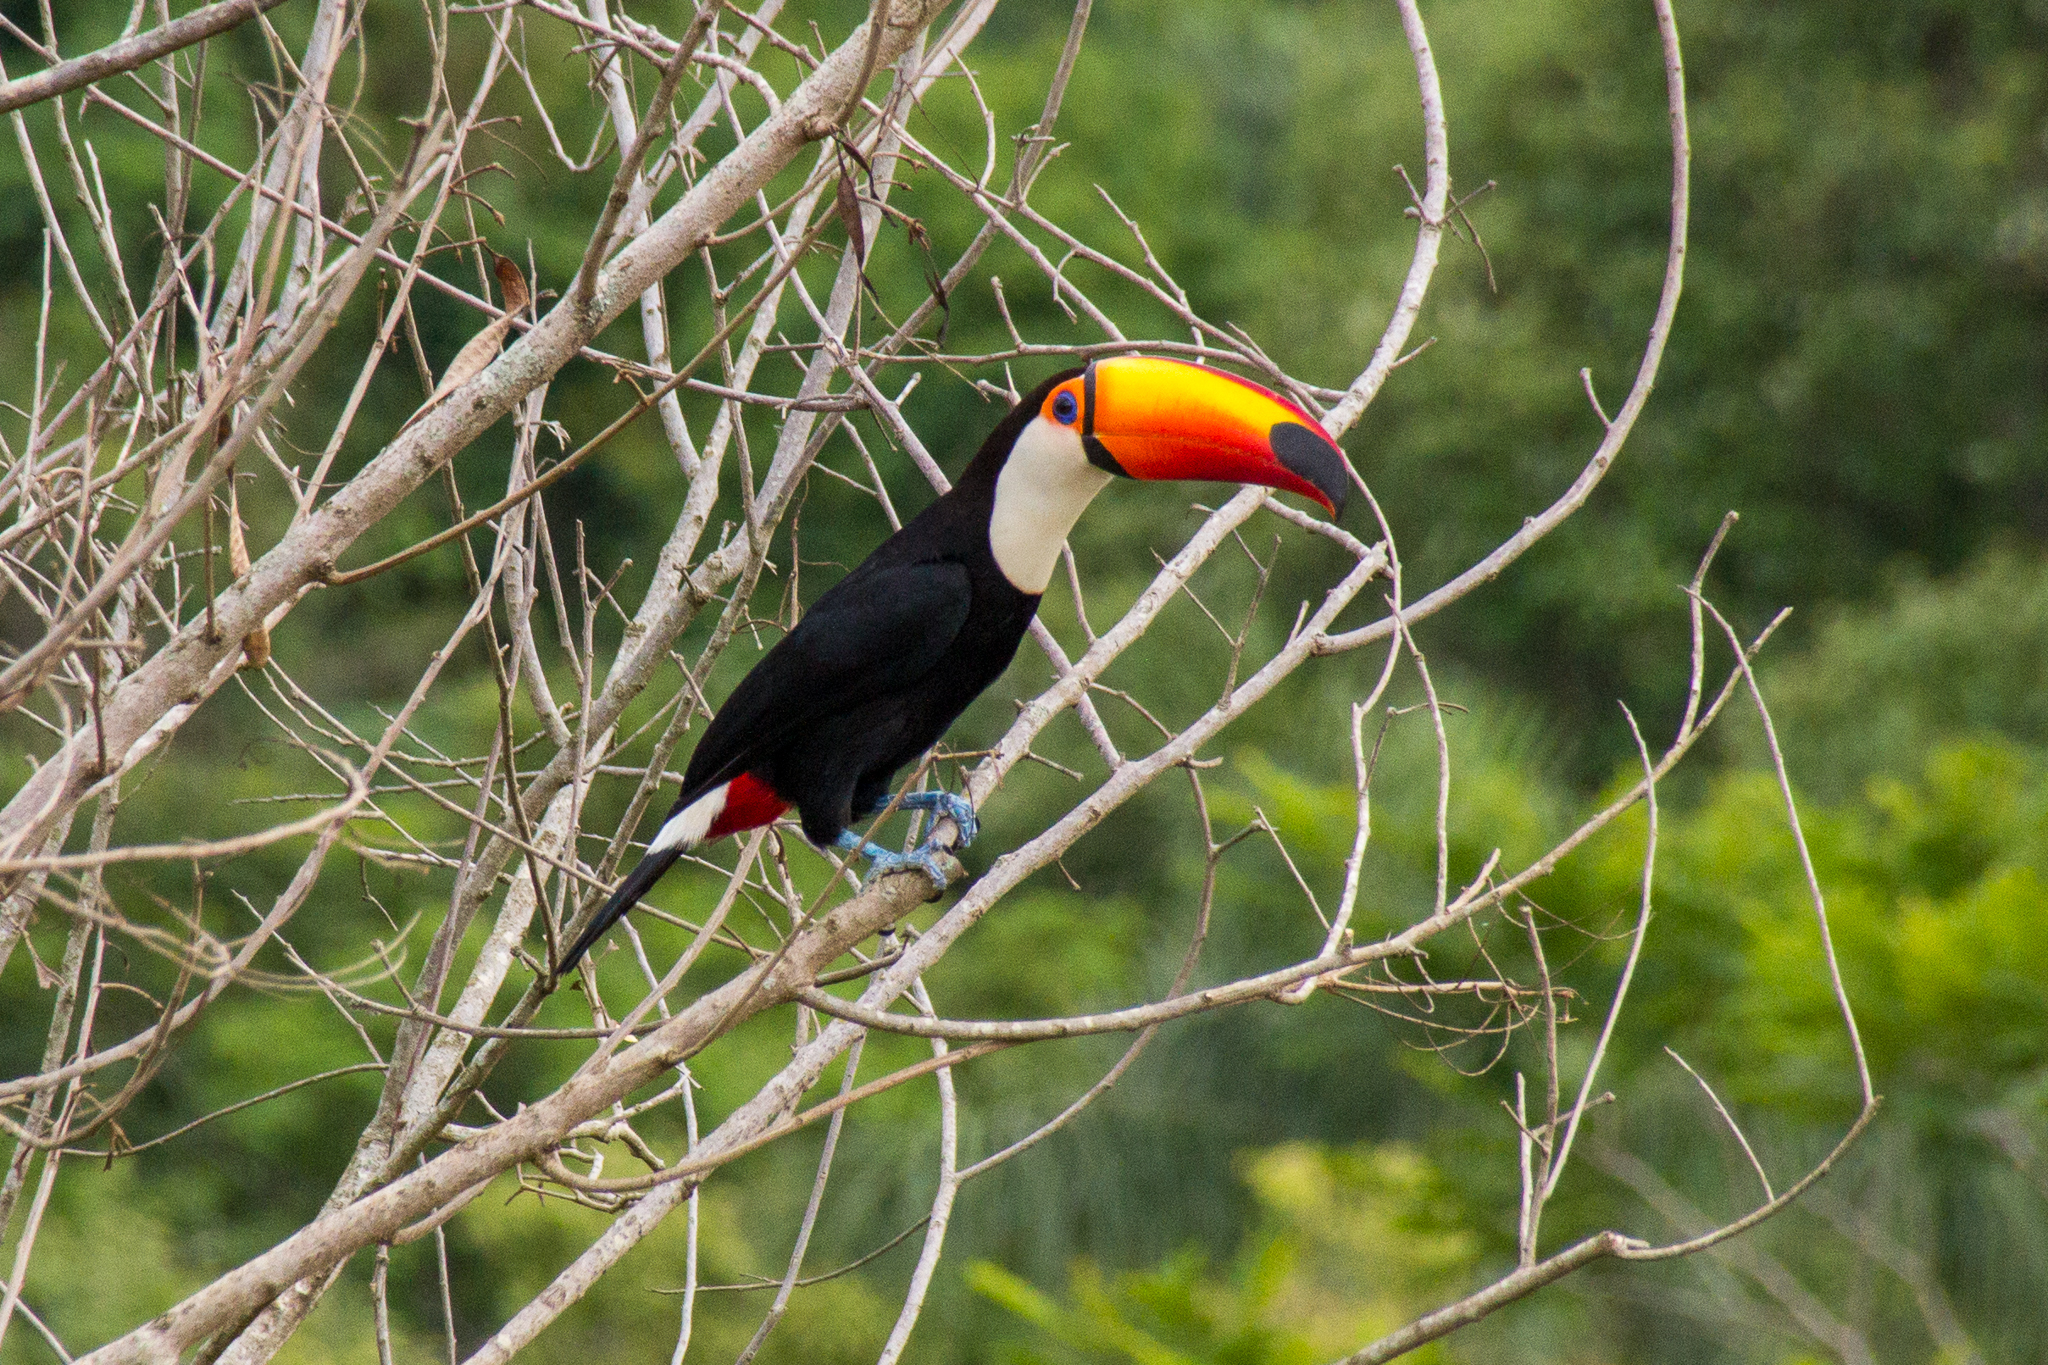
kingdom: Animalia
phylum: Chordata
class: Aves
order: Piciformes
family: Ramphastidae
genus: Ramphastos
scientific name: Ramphastos toco
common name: Toco toucan
